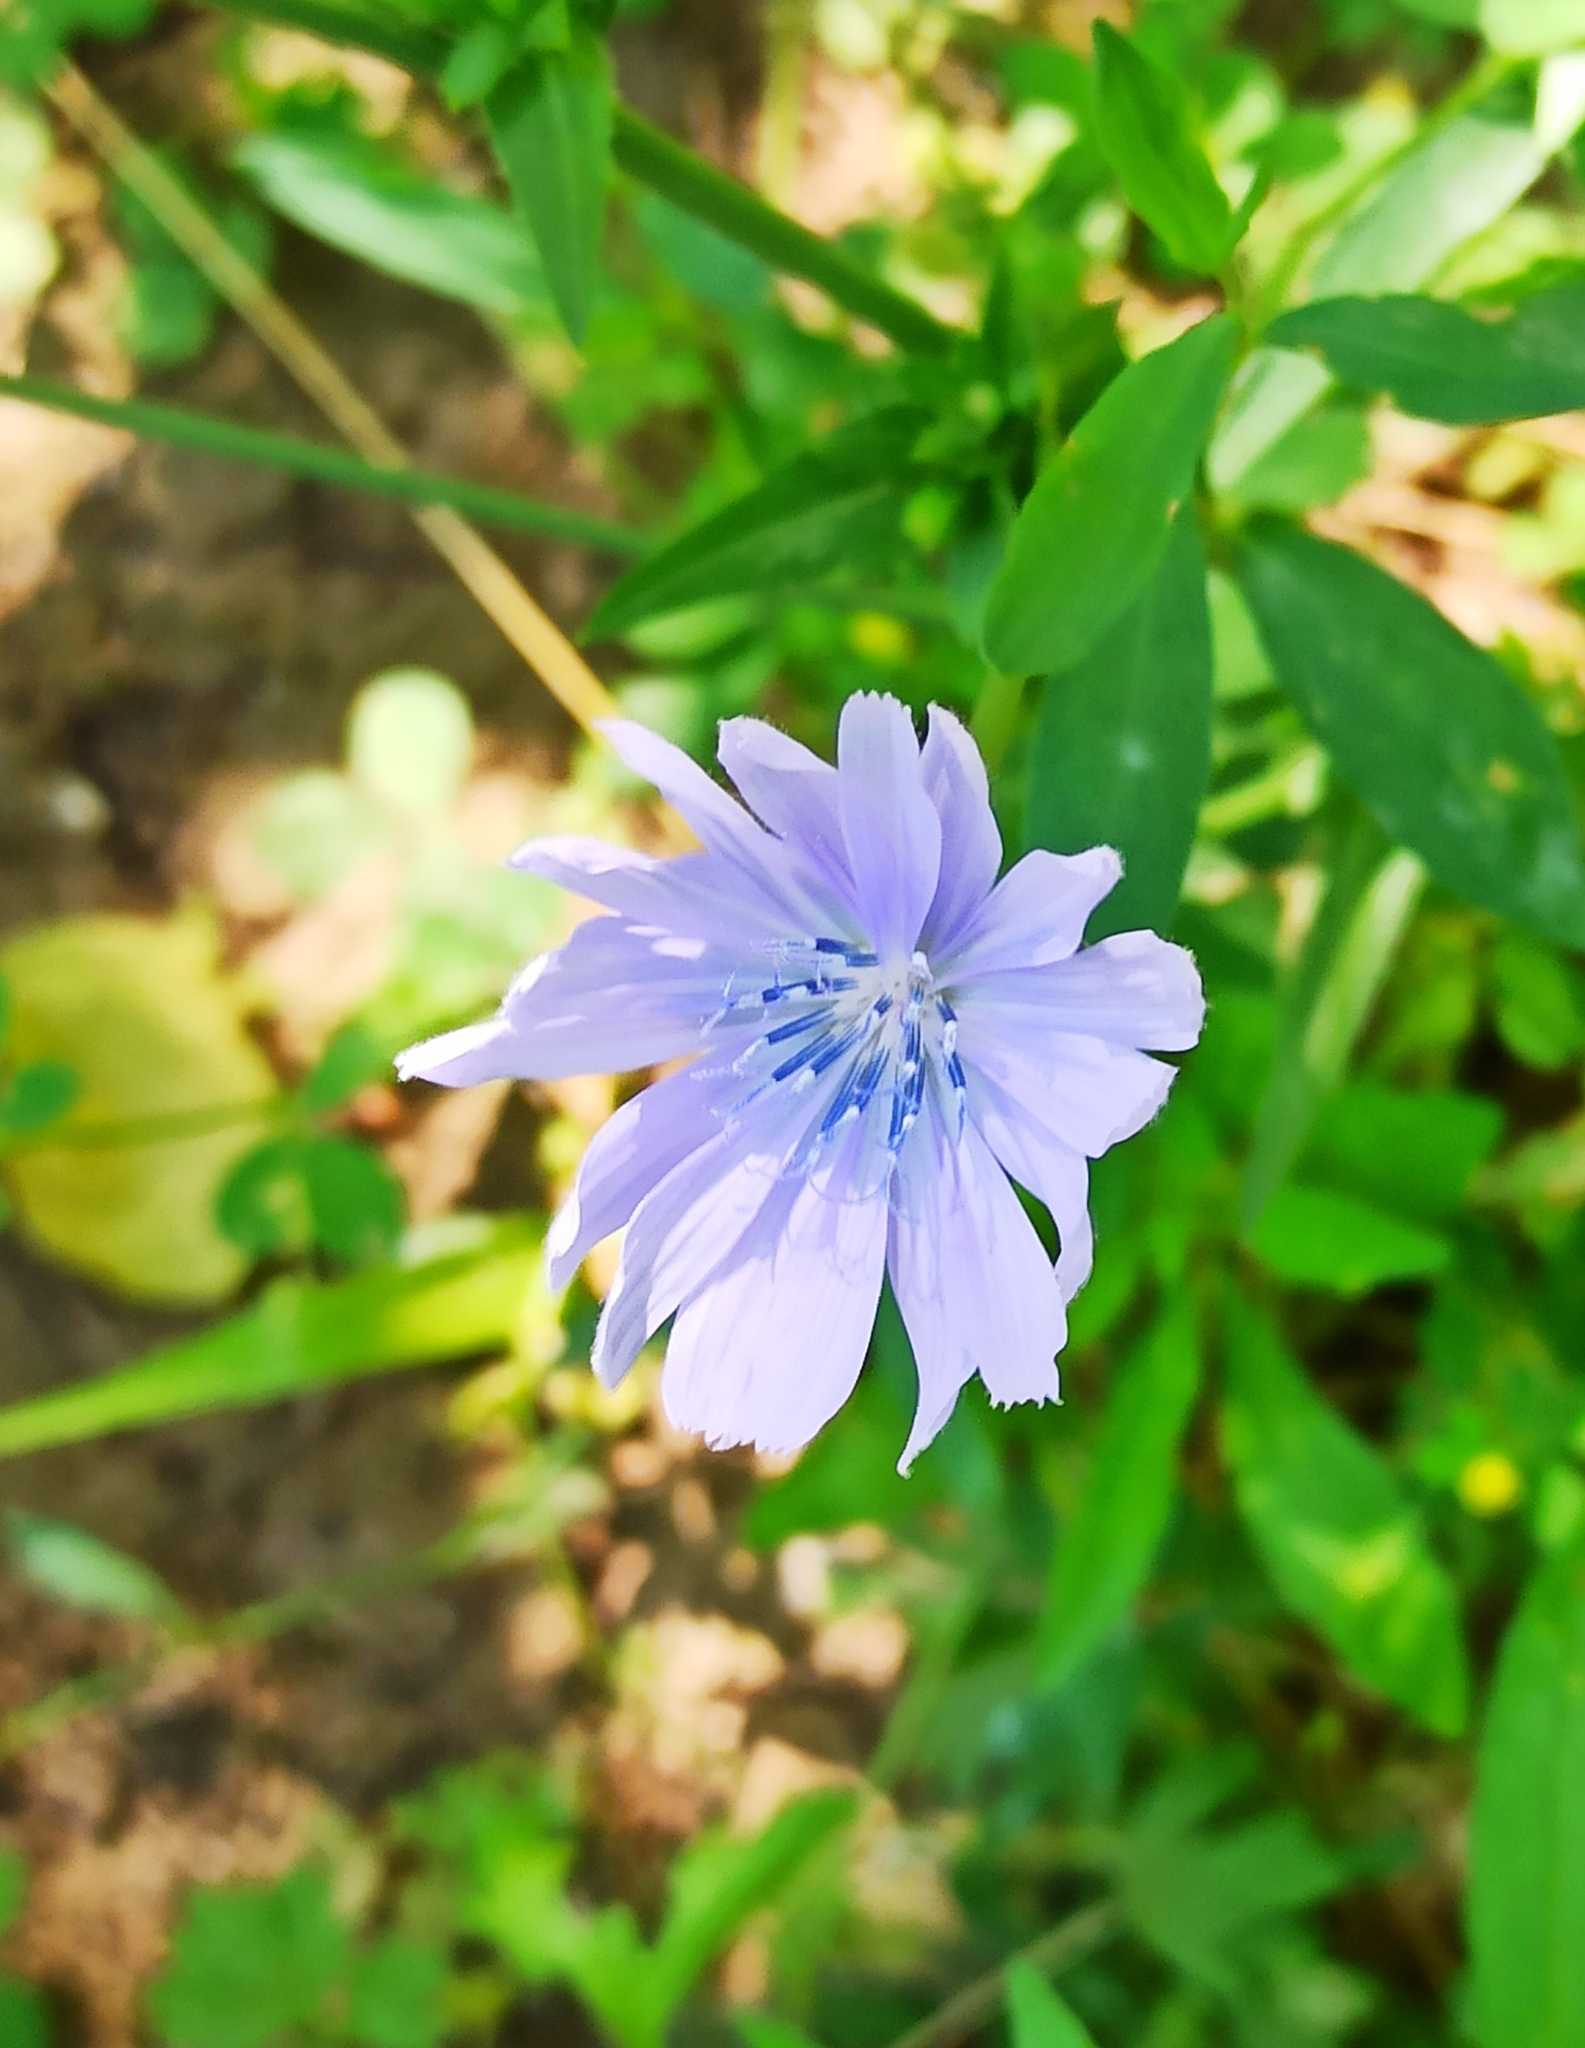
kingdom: Plantae
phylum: Tracheophyta
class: Magnoliopsida
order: Asterales
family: Asteraceae
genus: Cichorium
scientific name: Cichorium intybus
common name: Chicory
